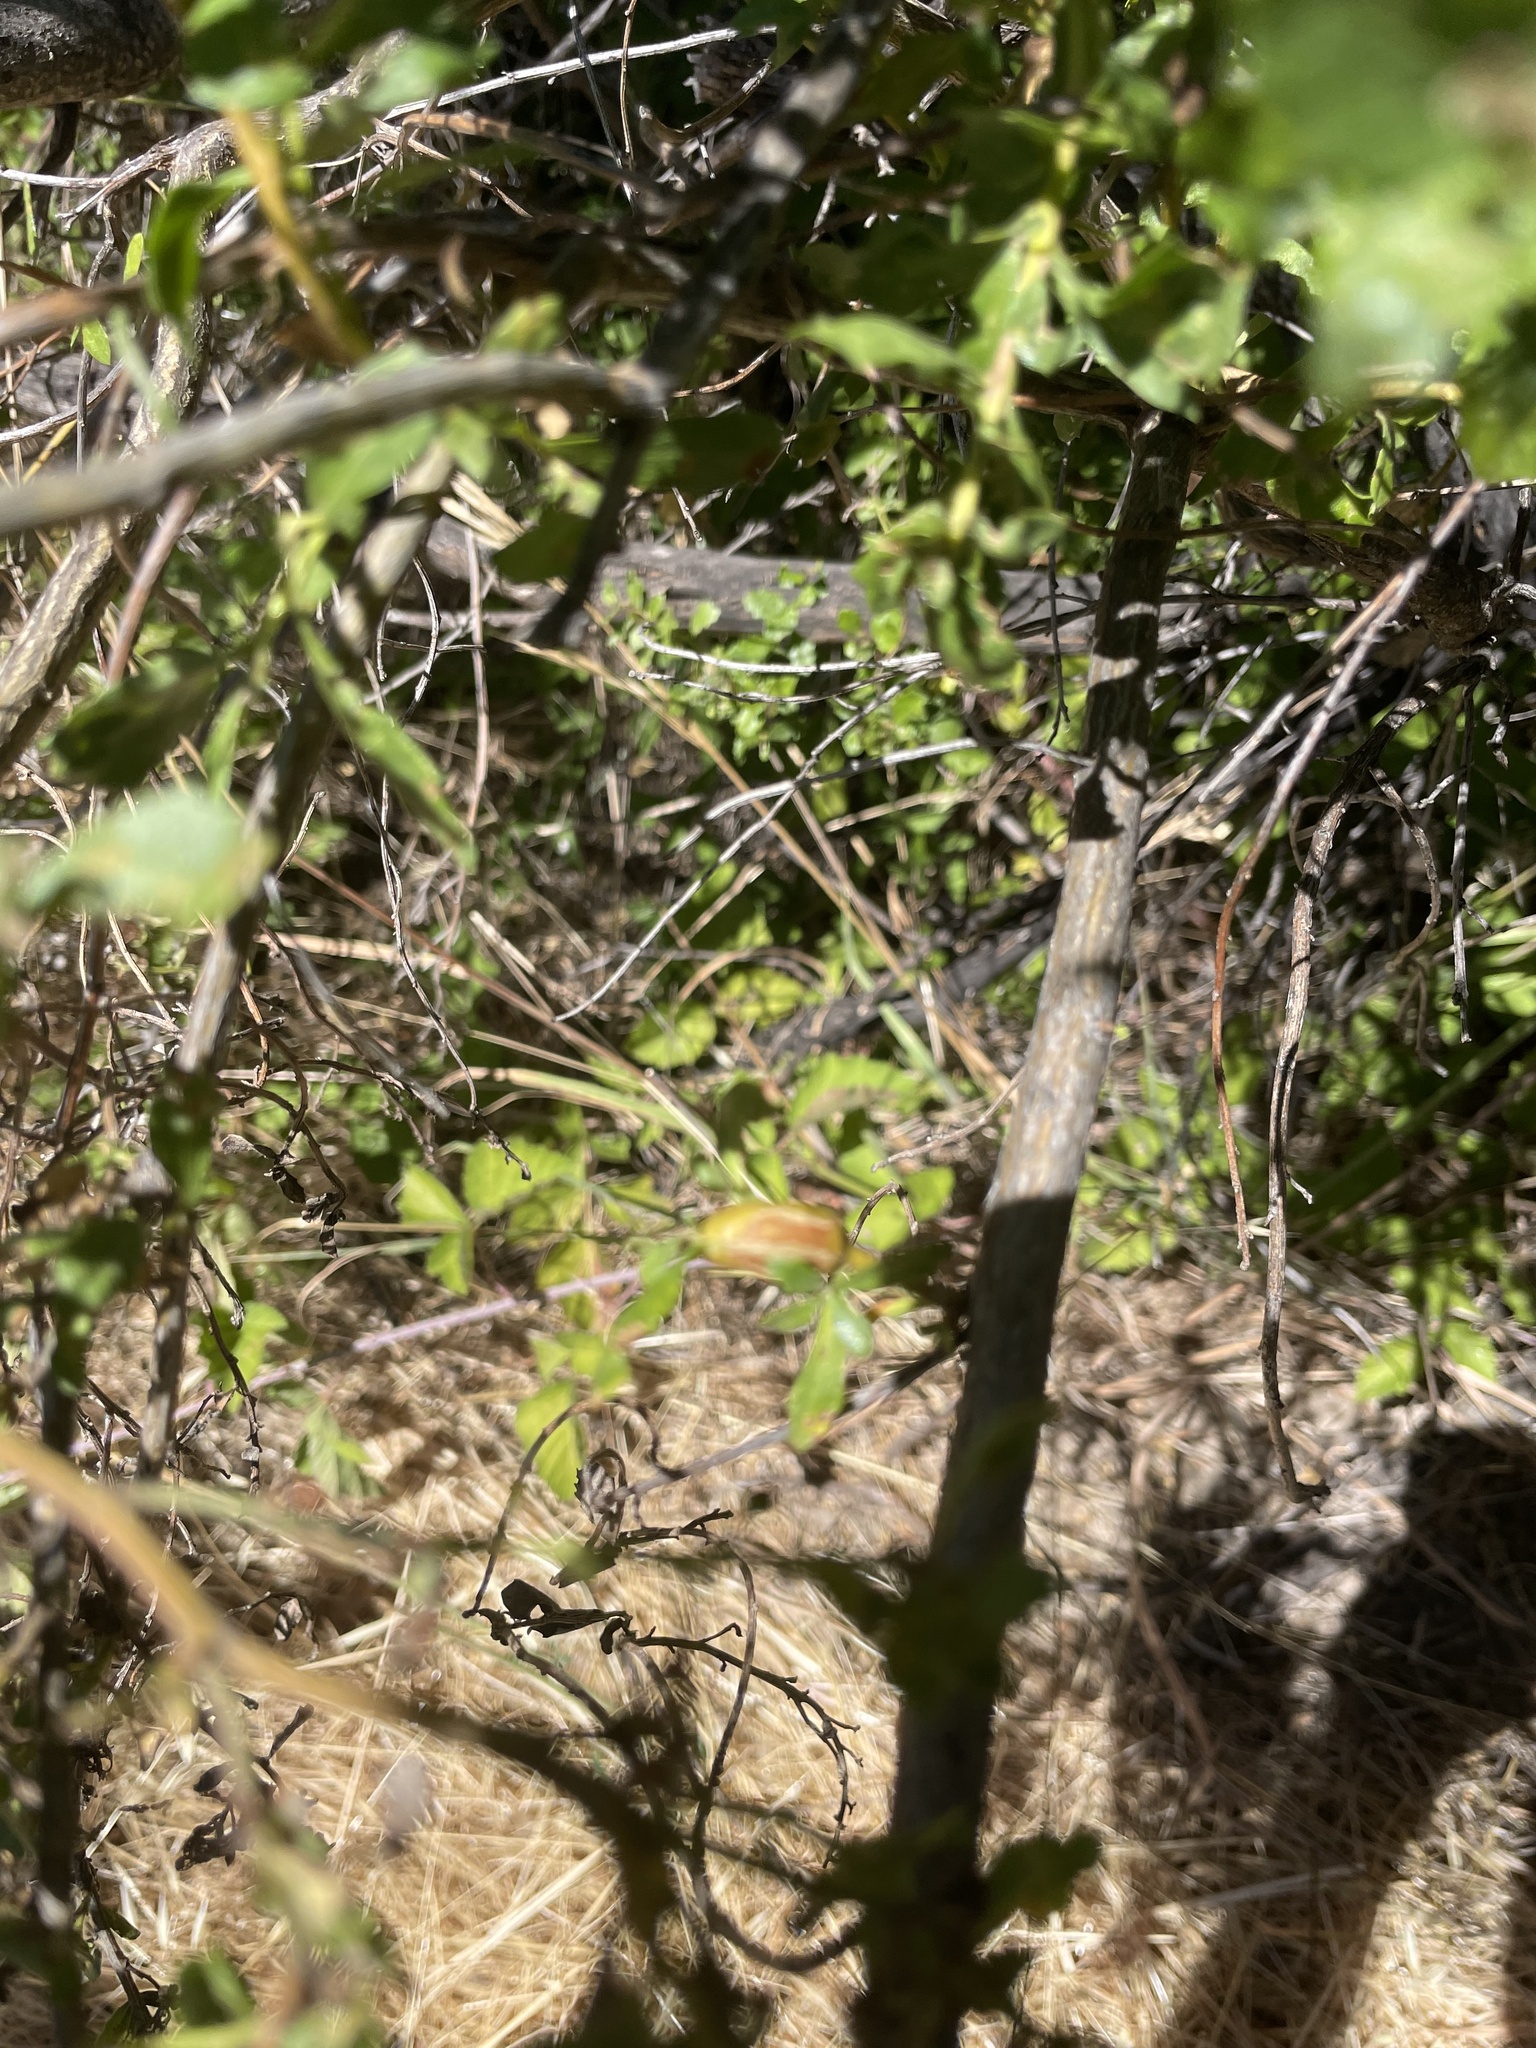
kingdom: Animalia
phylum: Arthropoda
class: Insecta
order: Lepidoptera
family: Gelechiidae
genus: Gnorimoschema
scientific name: Gnorimoschema baccharisella
